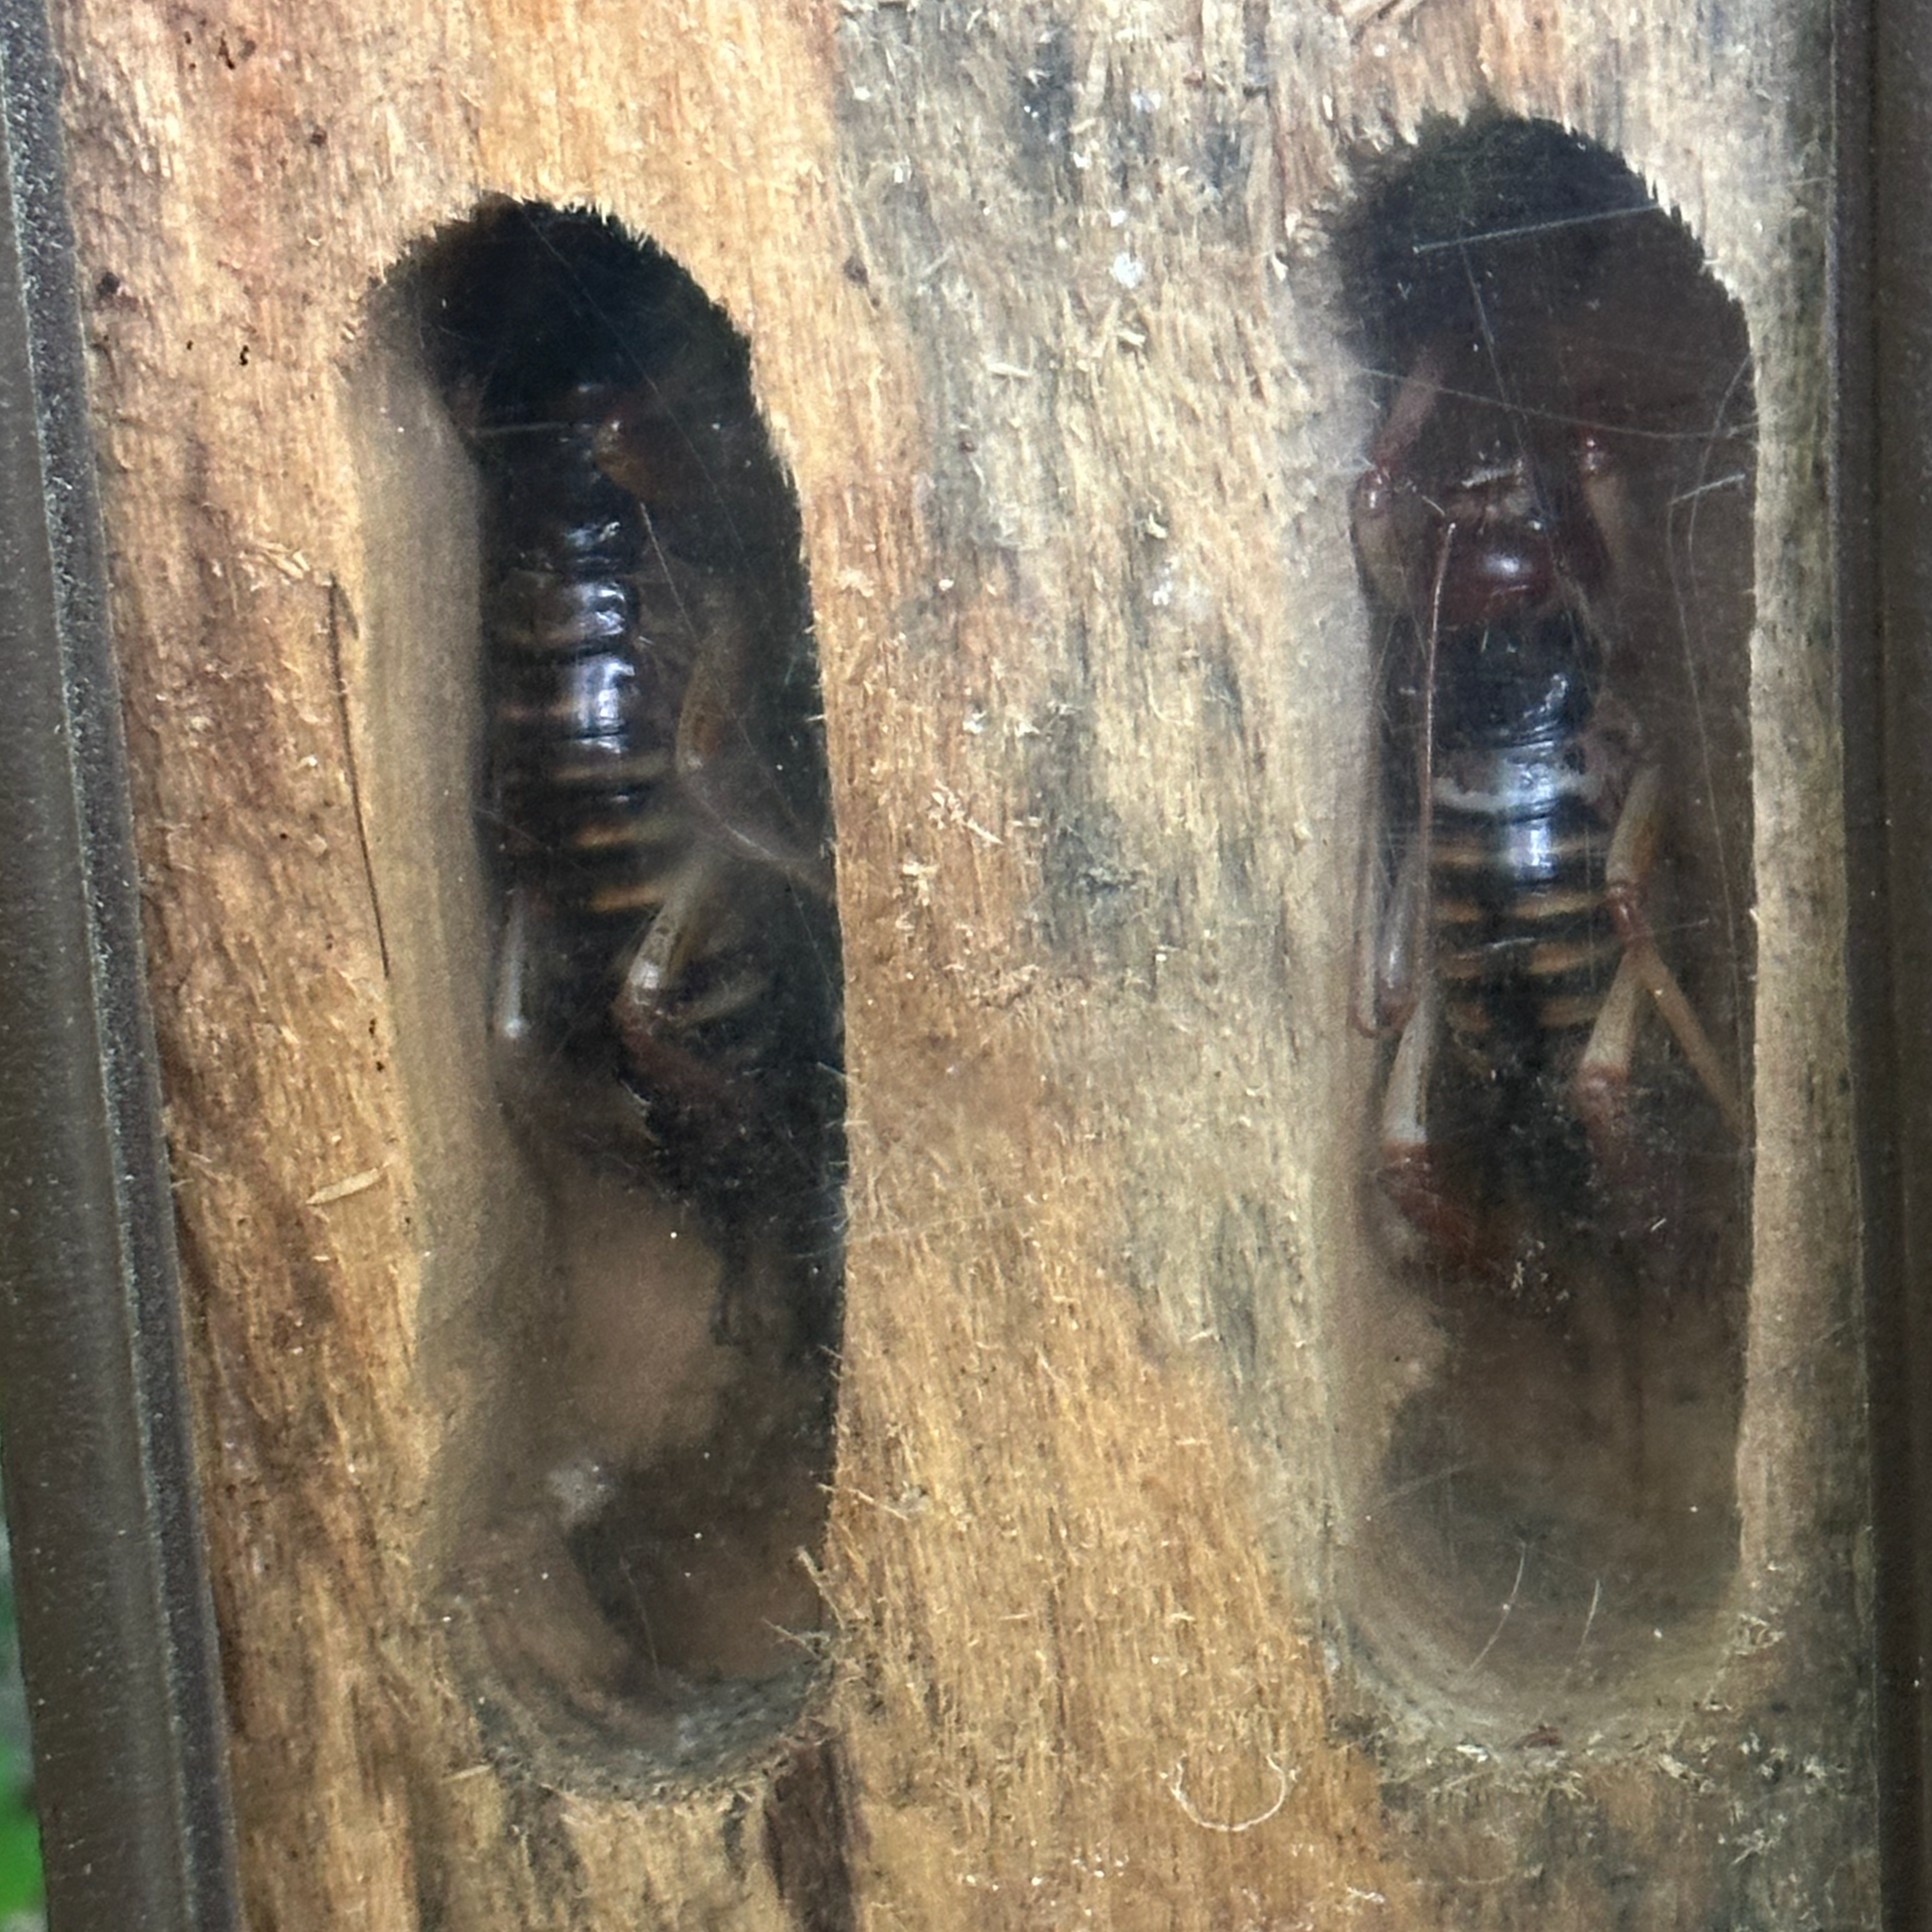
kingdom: Animalia
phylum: Arthropoda
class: Insecta
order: Orthoptera
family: Anostostomatidae
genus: Hemideina
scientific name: Hemideina crassidens
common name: Wellington tree weta
